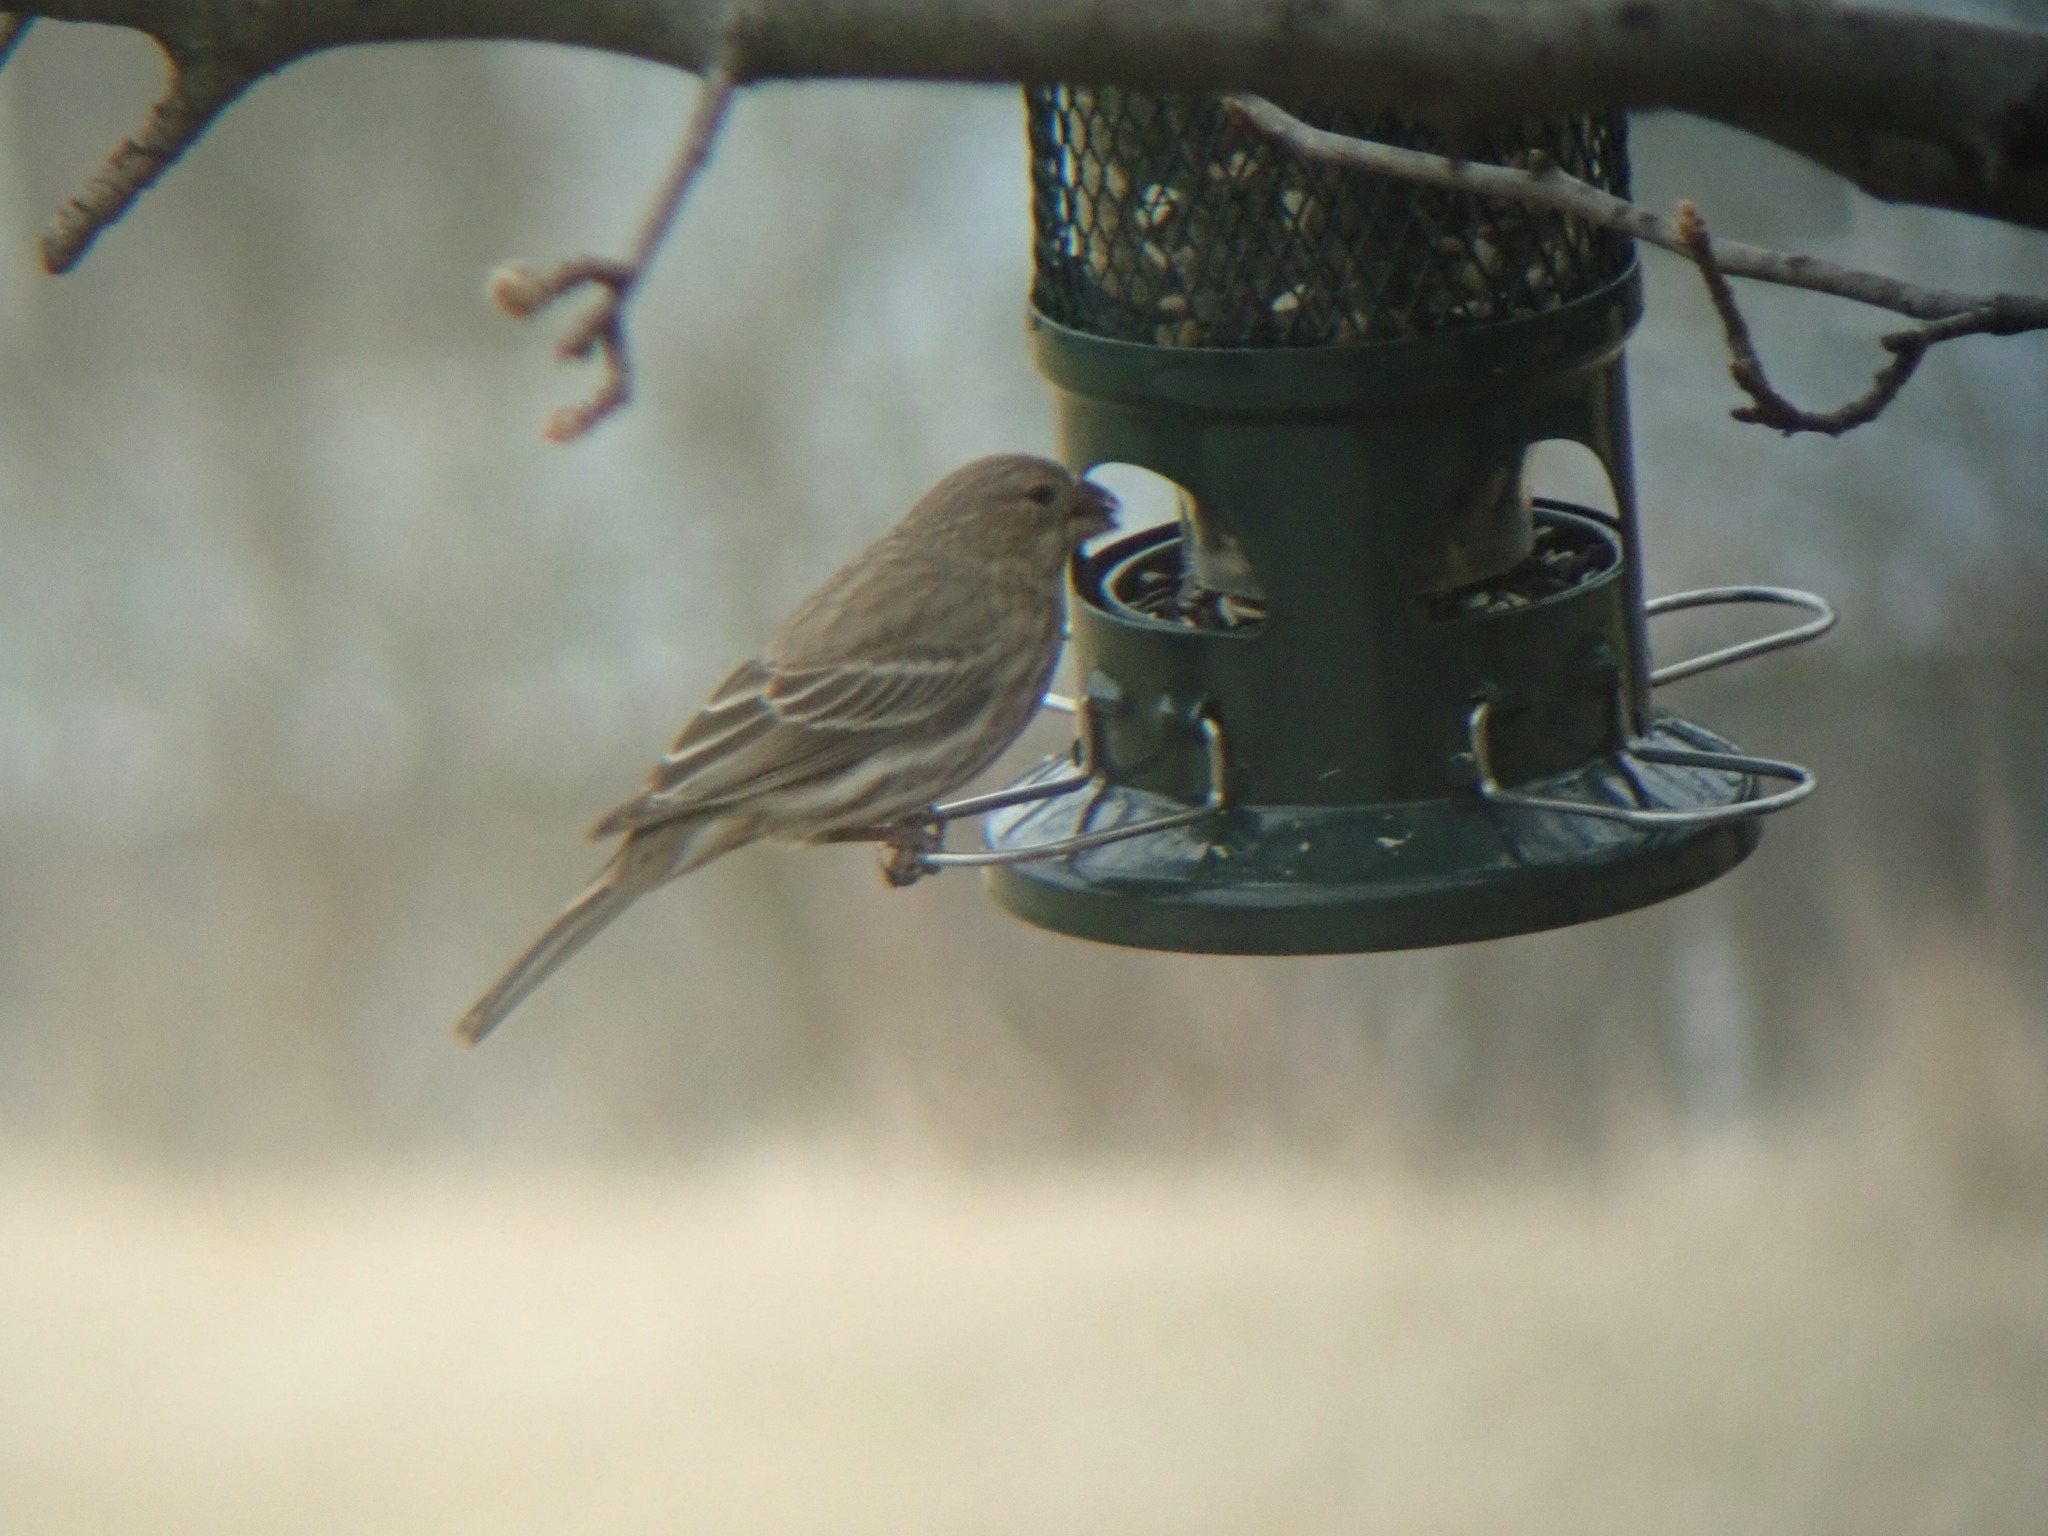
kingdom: Animalia
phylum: Chordata
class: Aves
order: Passeriformes
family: Fringillidae
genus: Haemorhous
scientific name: Haemorhous mexicanus
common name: House finch
